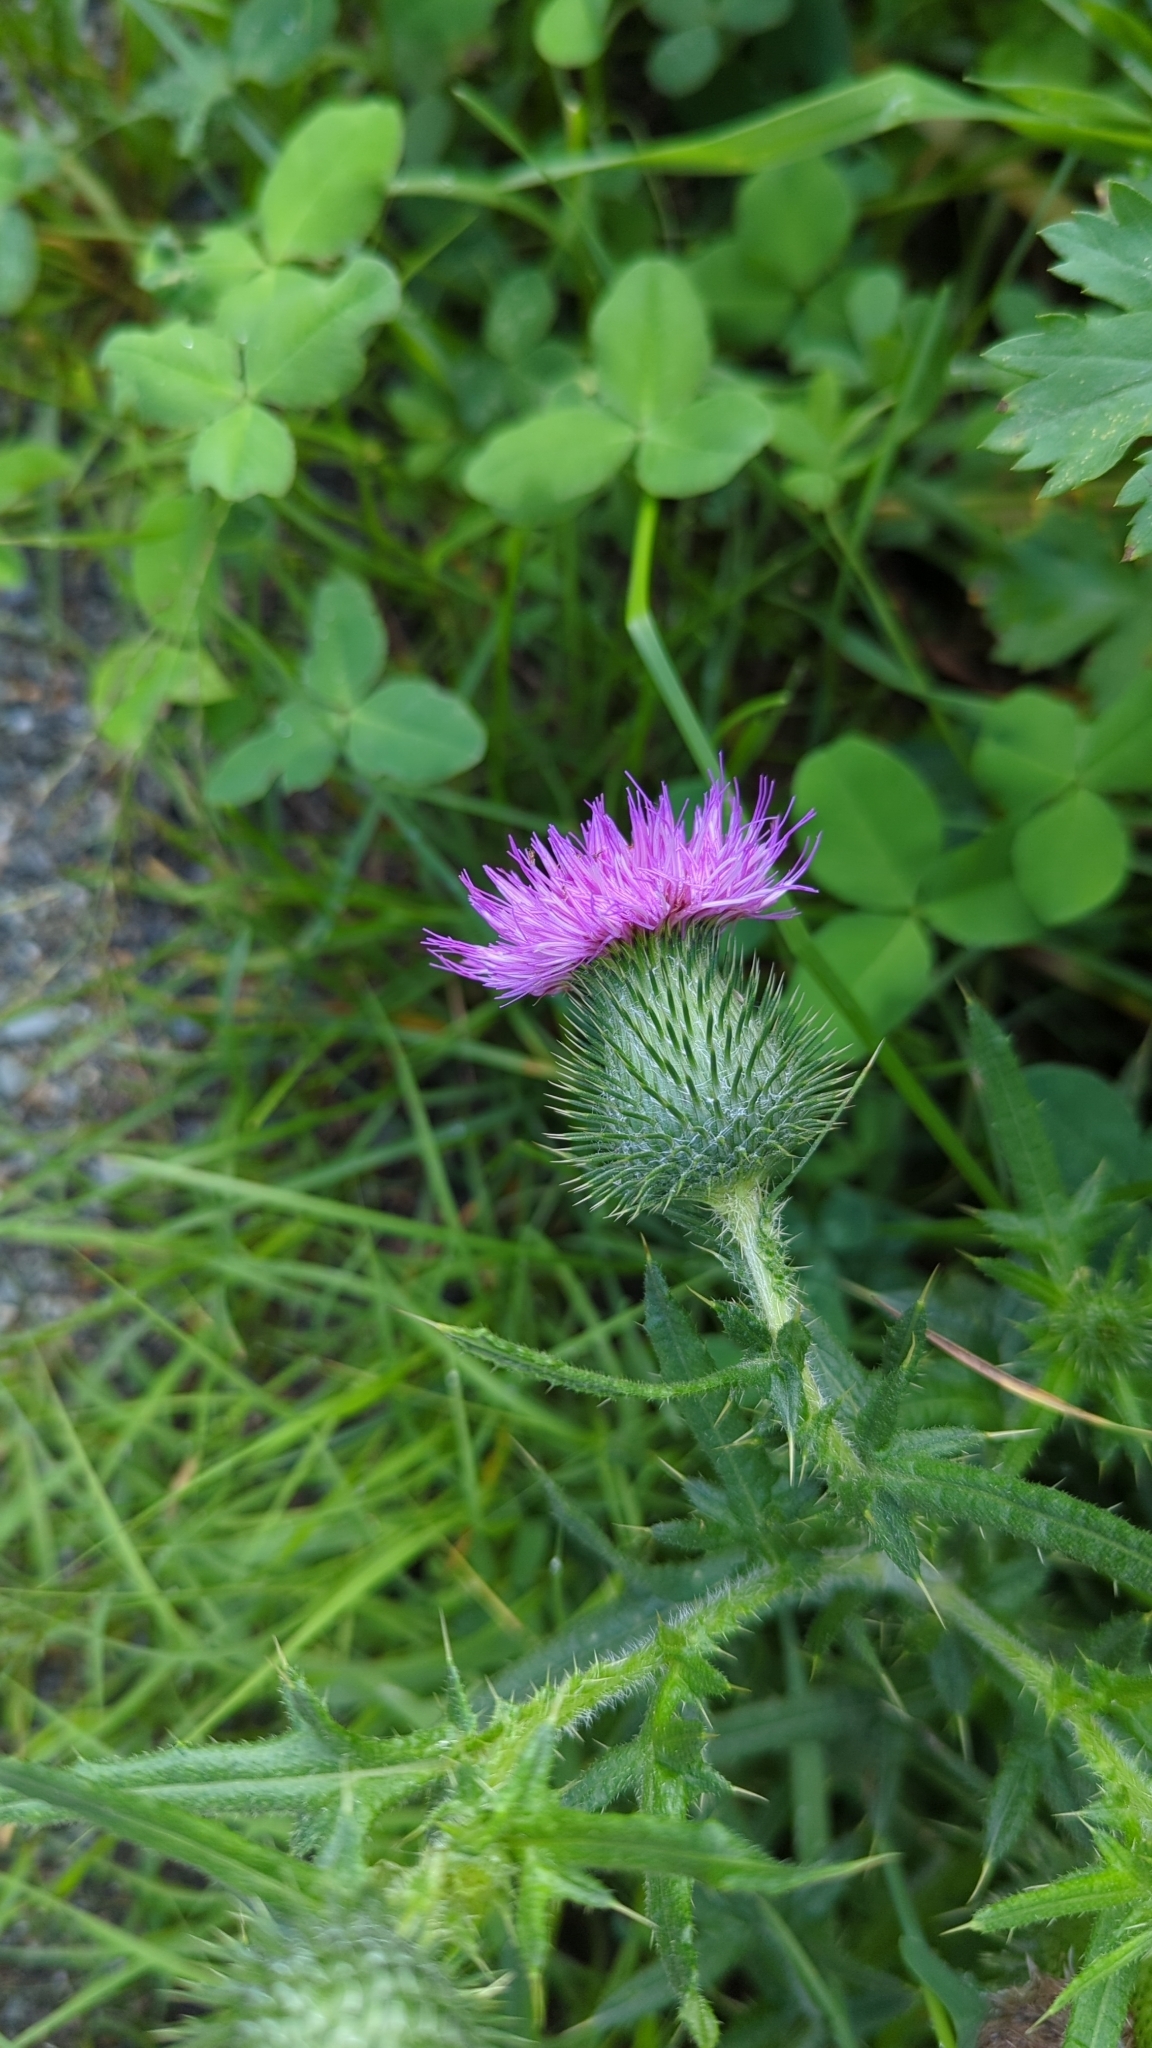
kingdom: Plantae
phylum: Tracheophyta
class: Magnoliopsida
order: Asterales
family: Asteraceae
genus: Cirsium
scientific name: Cirsium vulgare
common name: Bull thistle
